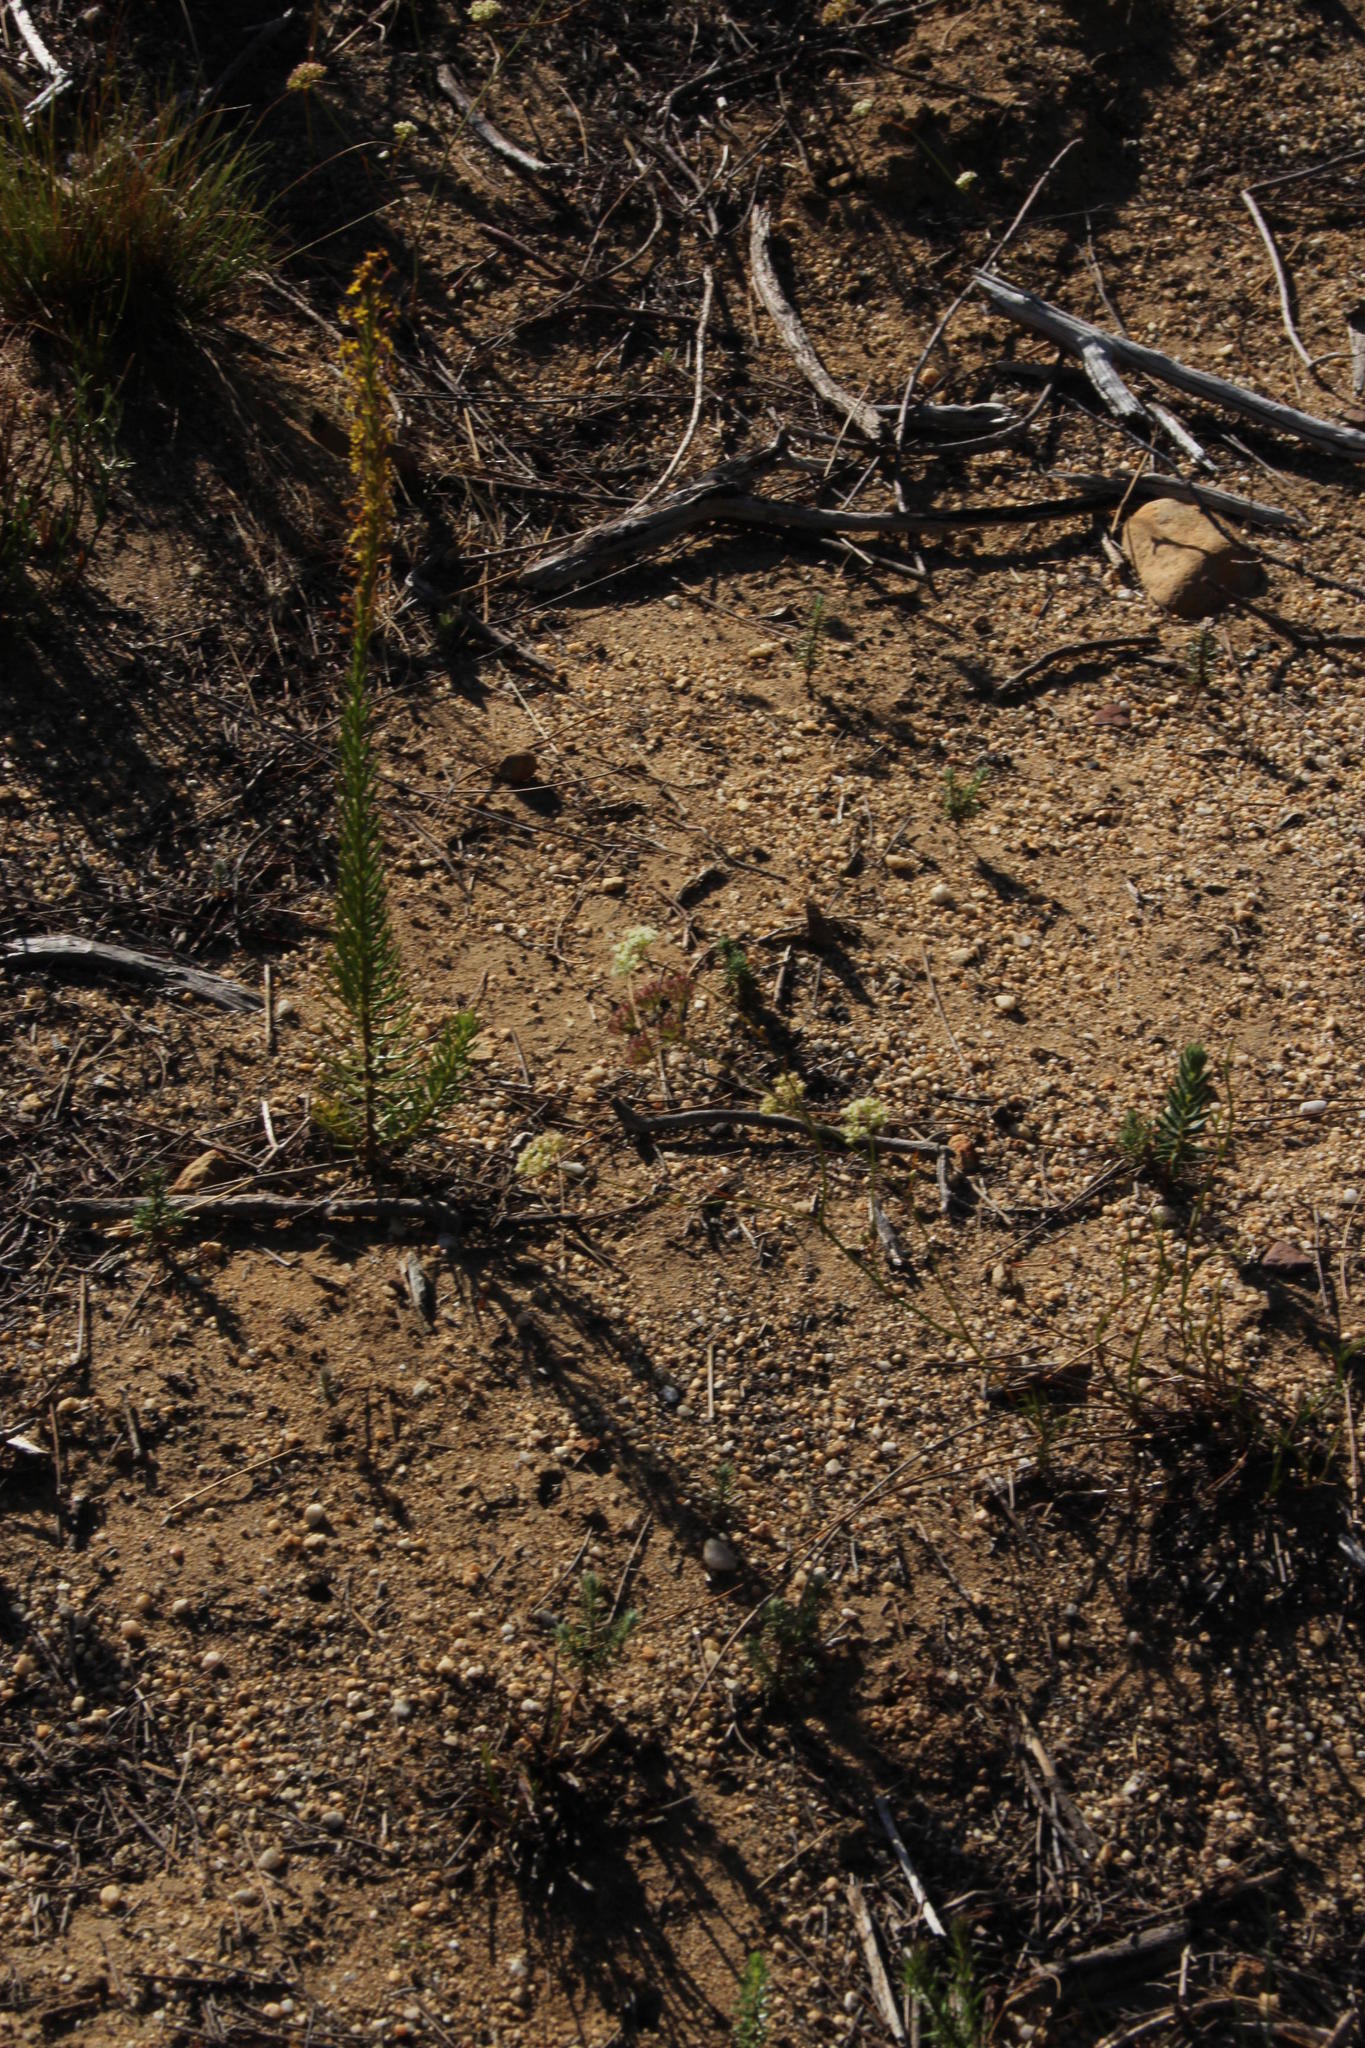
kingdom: Plantae
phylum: Tracheophyta
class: Magnoliopsida
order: Apiales
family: Apiaceae
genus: Itasina
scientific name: Itasina filifolia
